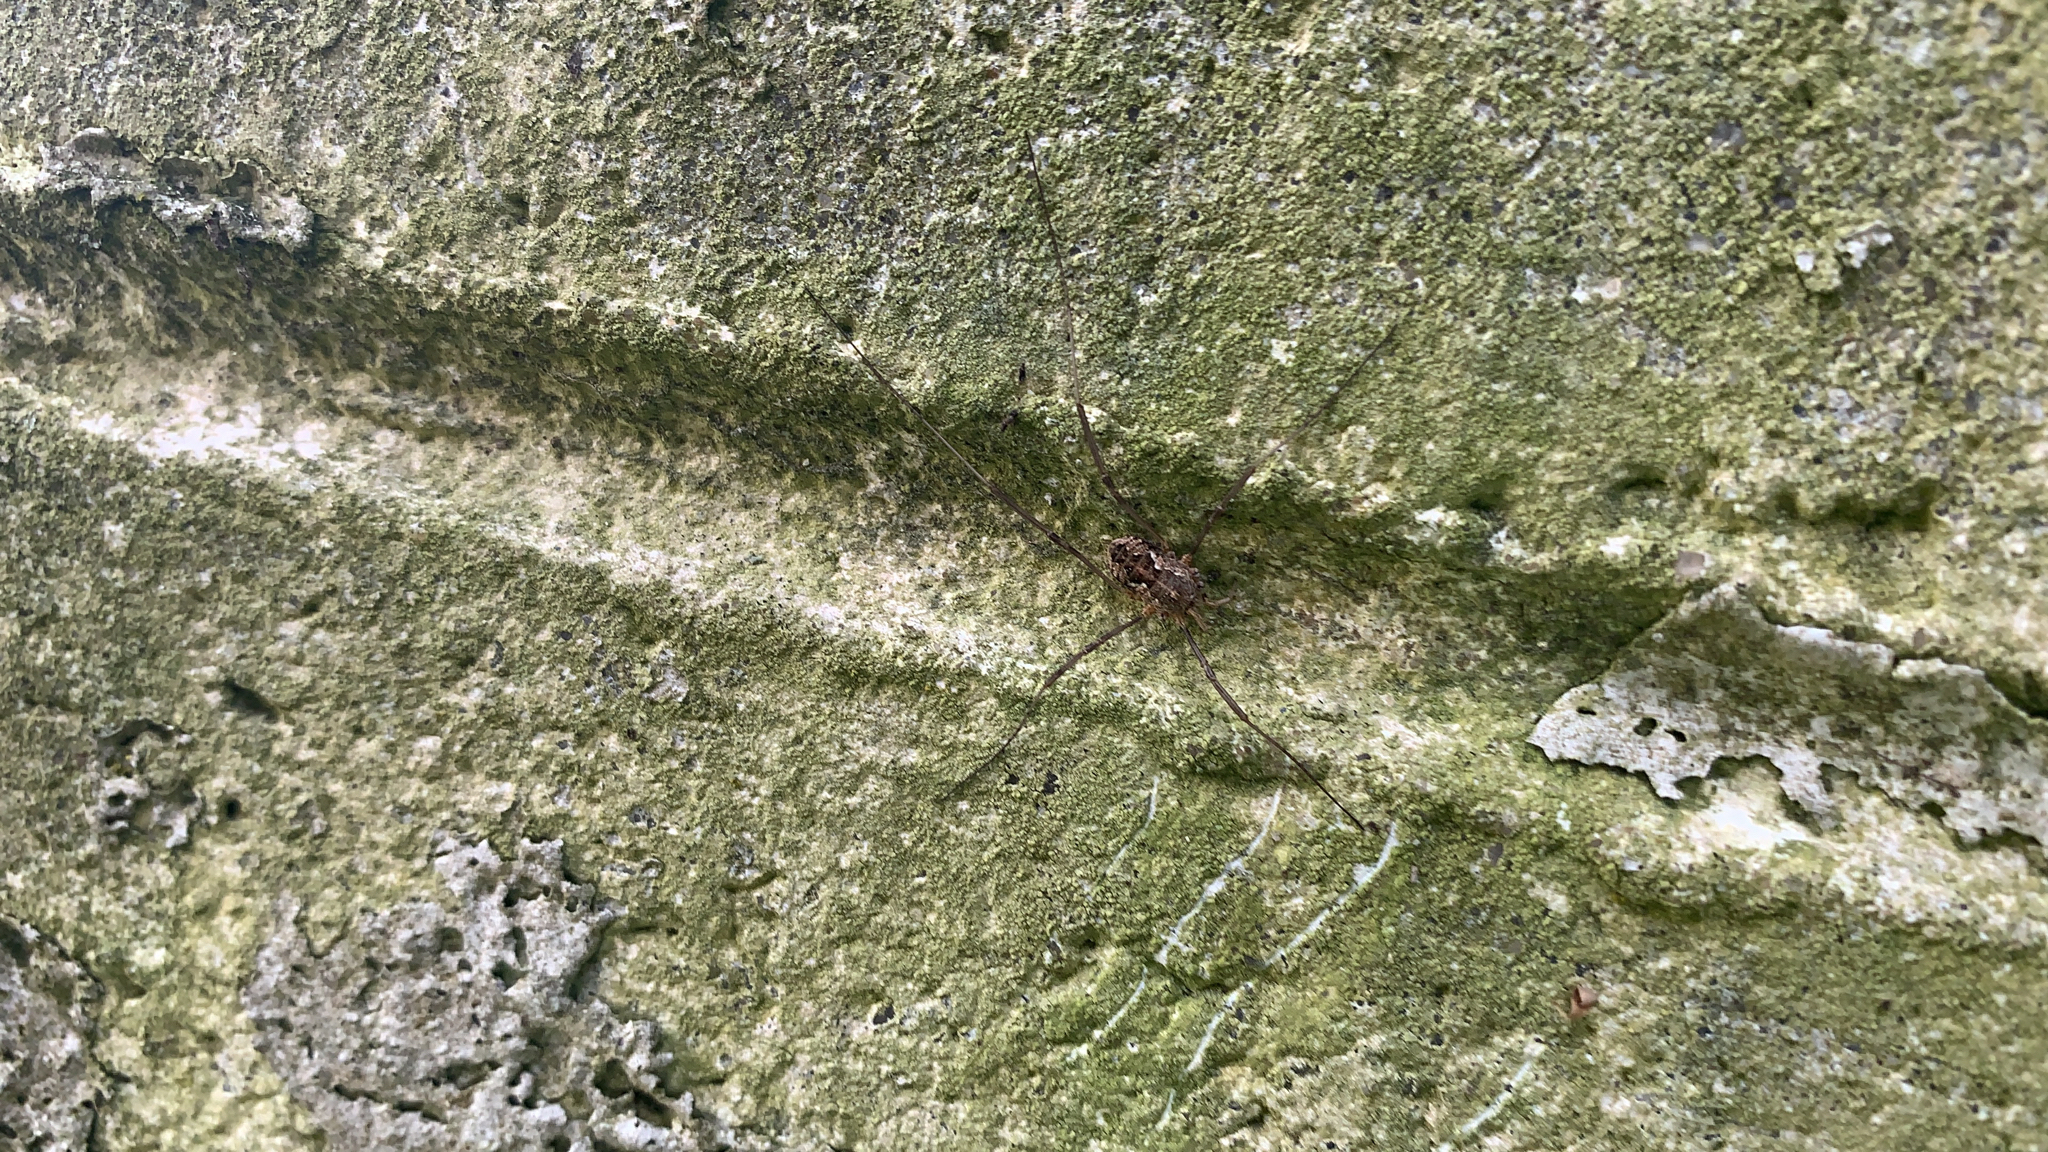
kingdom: Animalia
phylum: Arthropoda
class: Arachnida
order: Opiliones
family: Phalangiidae
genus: Phalangium
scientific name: Phalangium opilio
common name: Daddy longleg
